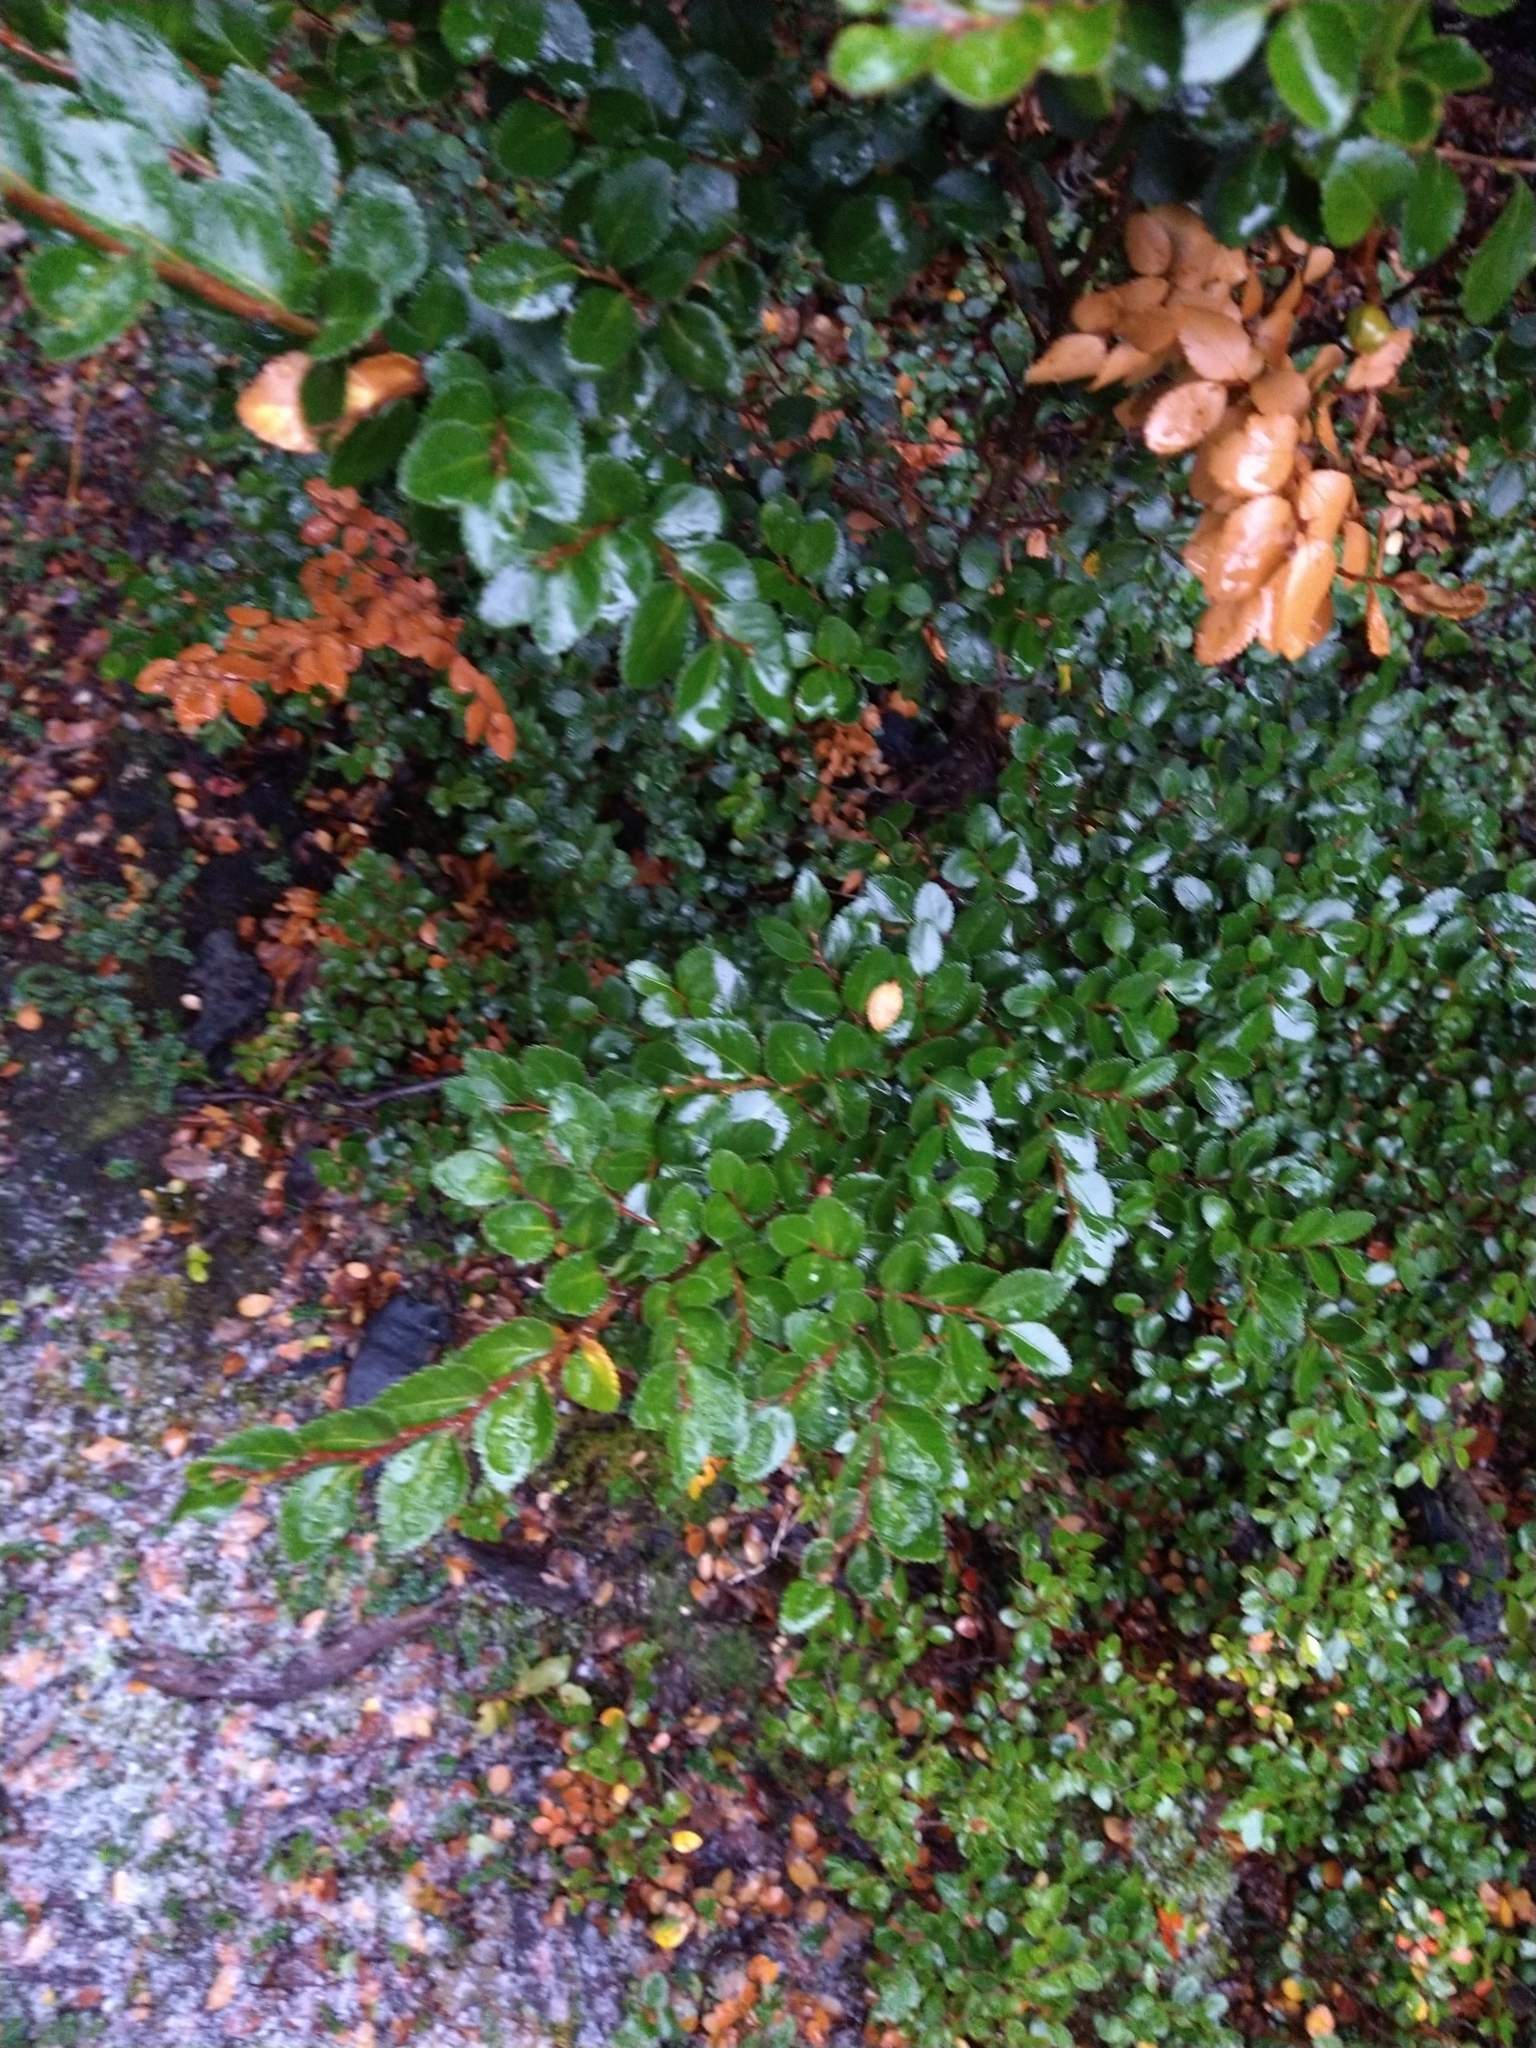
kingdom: Plantae
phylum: Tracheophyta
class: Magnoliopsida
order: Fagales
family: Nothofagaceae
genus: Nothofagus
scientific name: Nothofagus betuloides
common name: Magellan's beech
